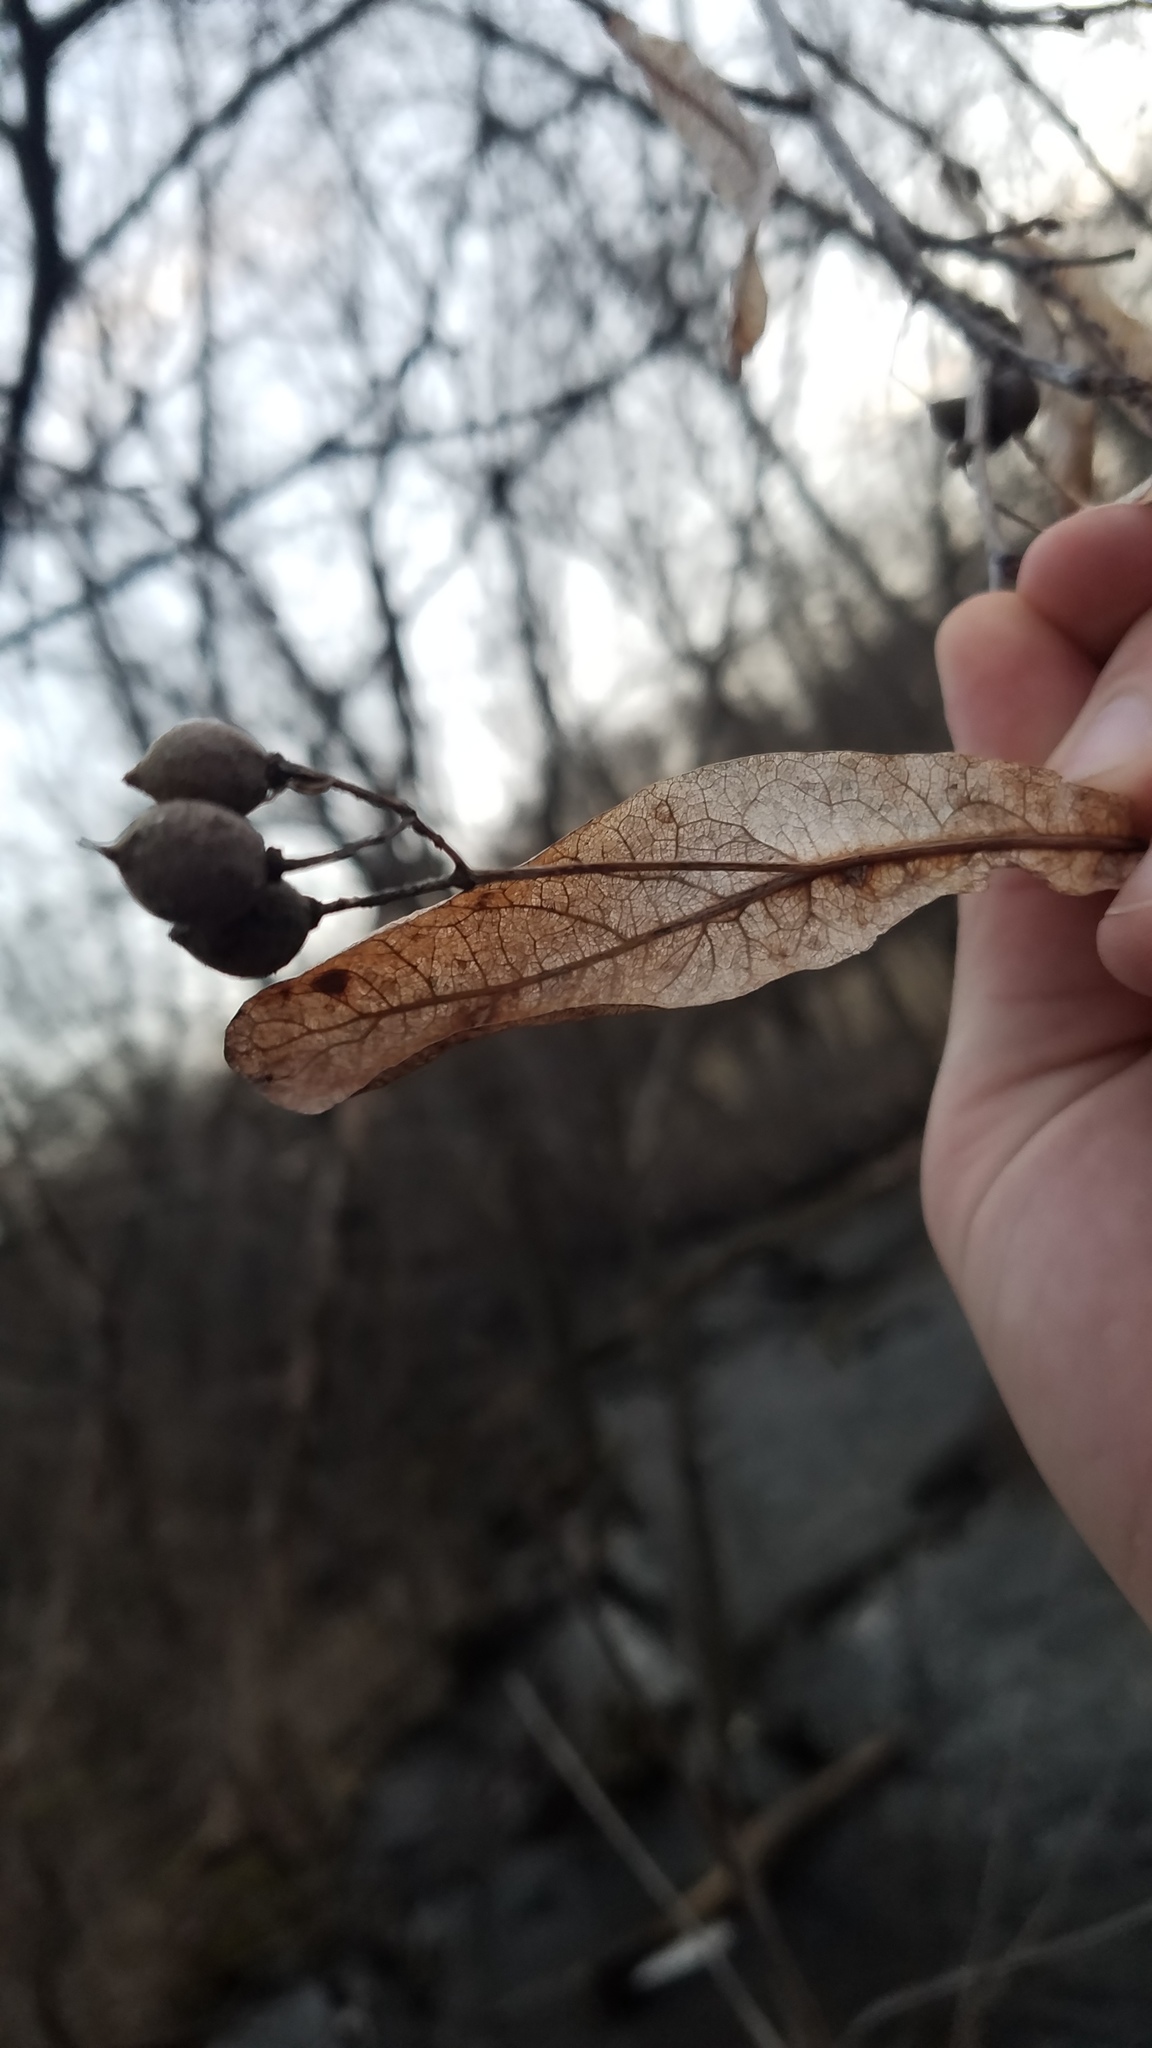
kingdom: Plantae
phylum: Tracheophyta
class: Magnoliopsida
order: Malvales
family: Malvaceae
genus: Tilia
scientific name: Tilia americana
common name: Basswood
